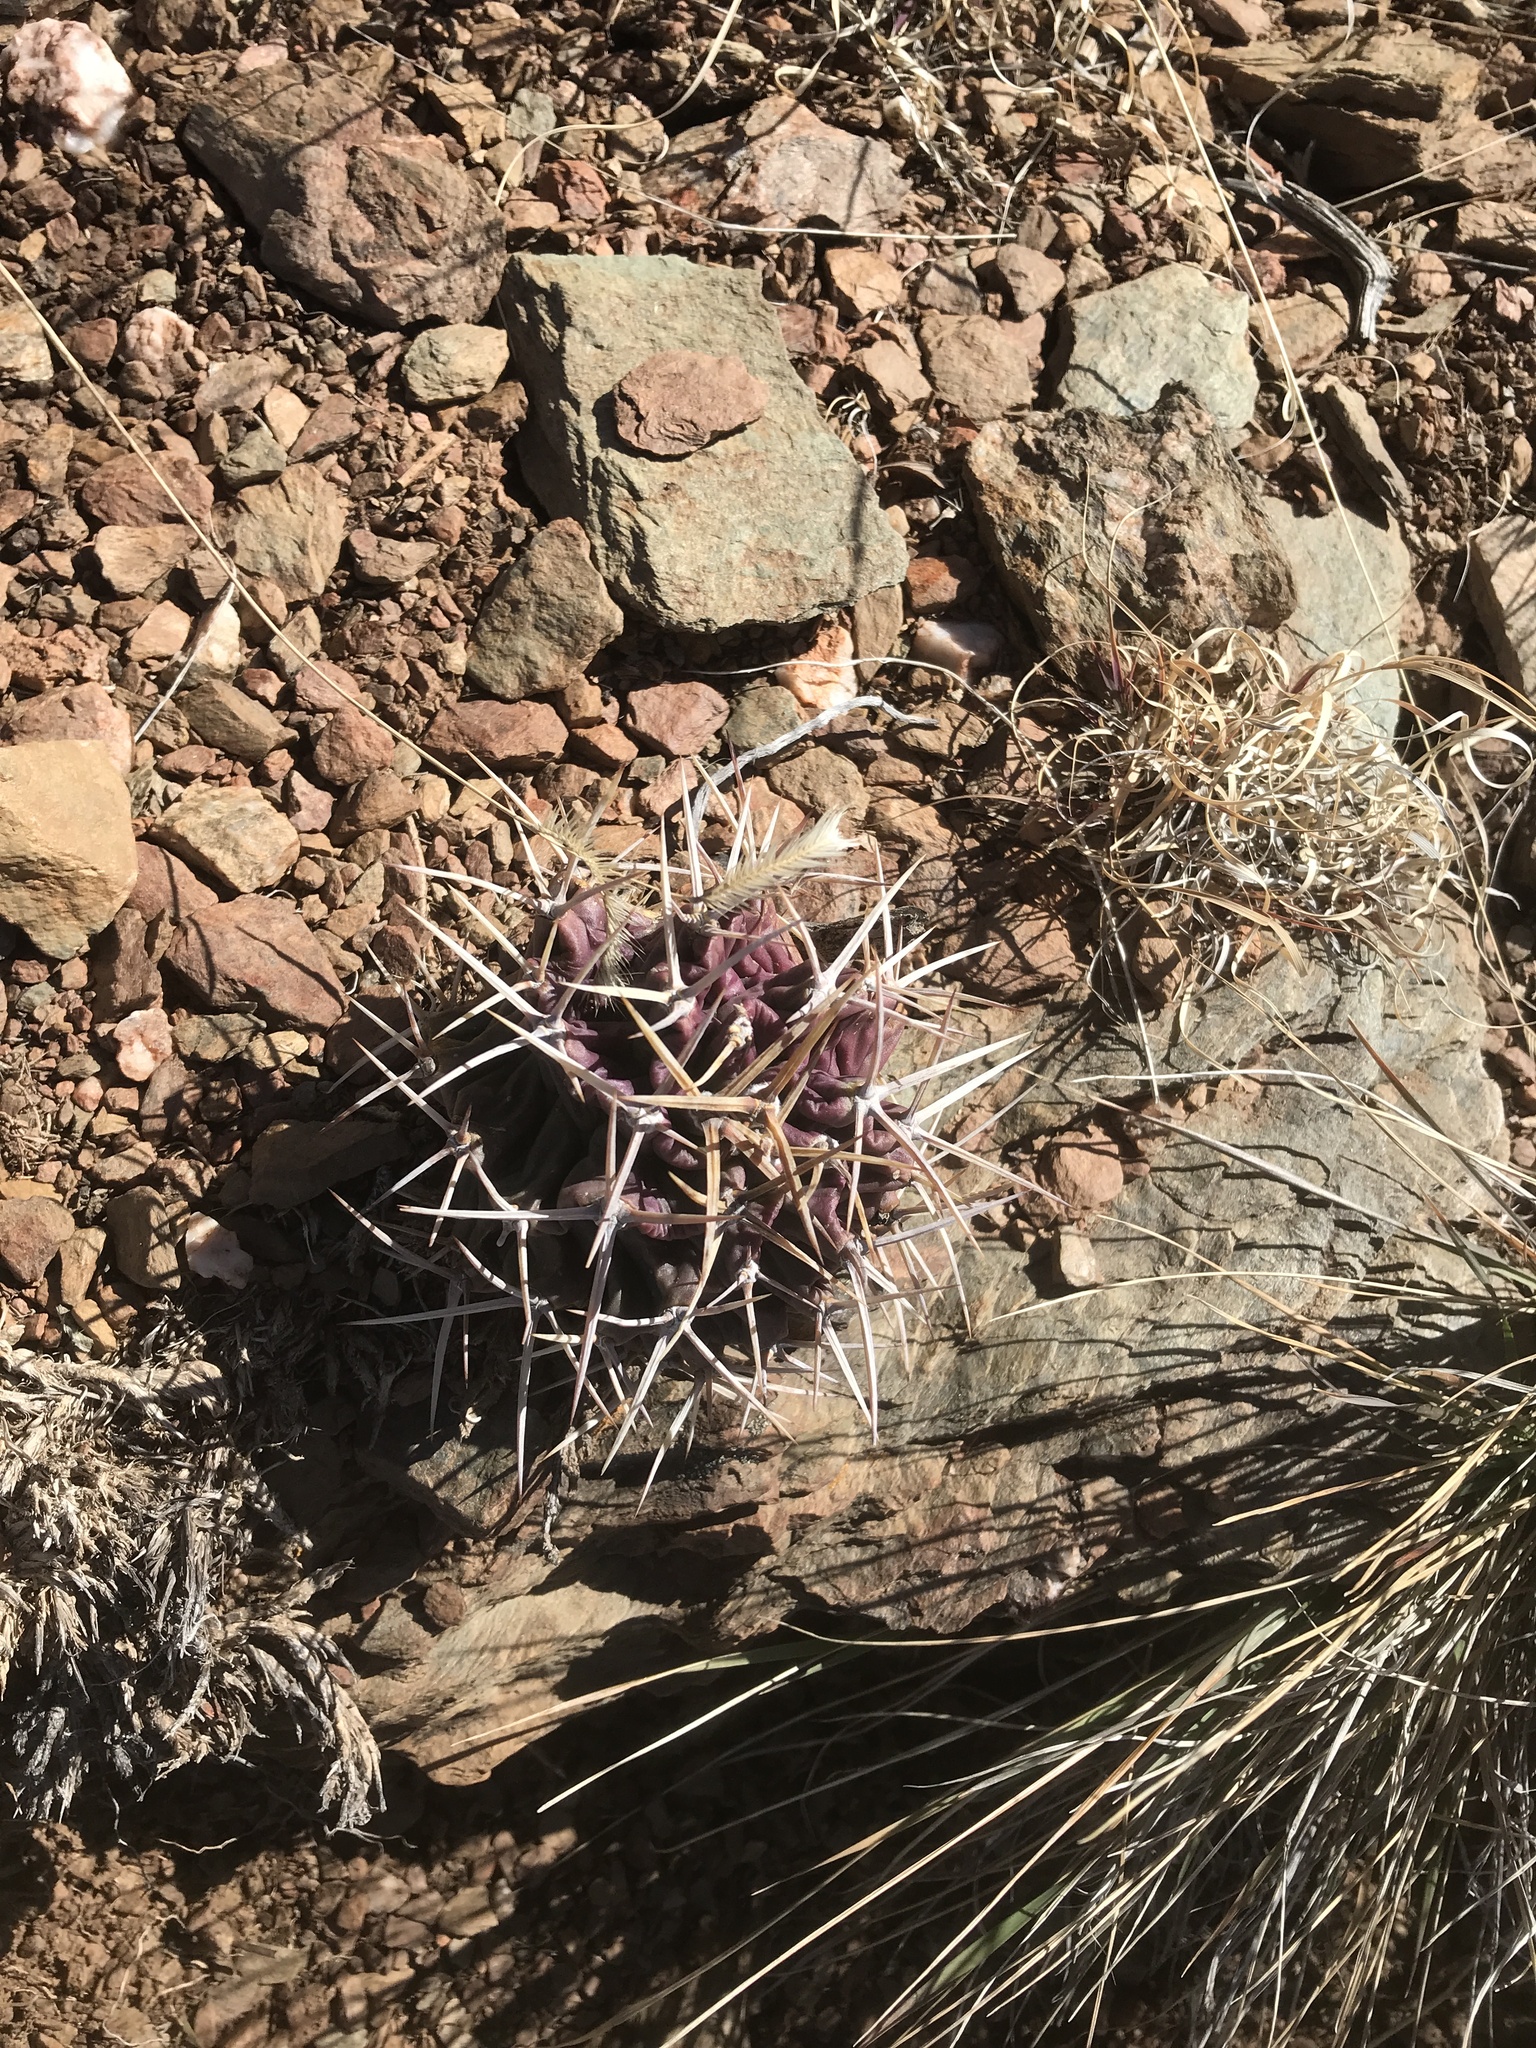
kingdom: Plantae
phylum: Tracheophyta
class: Magnoliopsida
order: Caryophyllales
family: Cactaceae
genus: Echinocereus
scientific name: Echinocereus triglochidiatus
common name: Claretcup hedgehog
